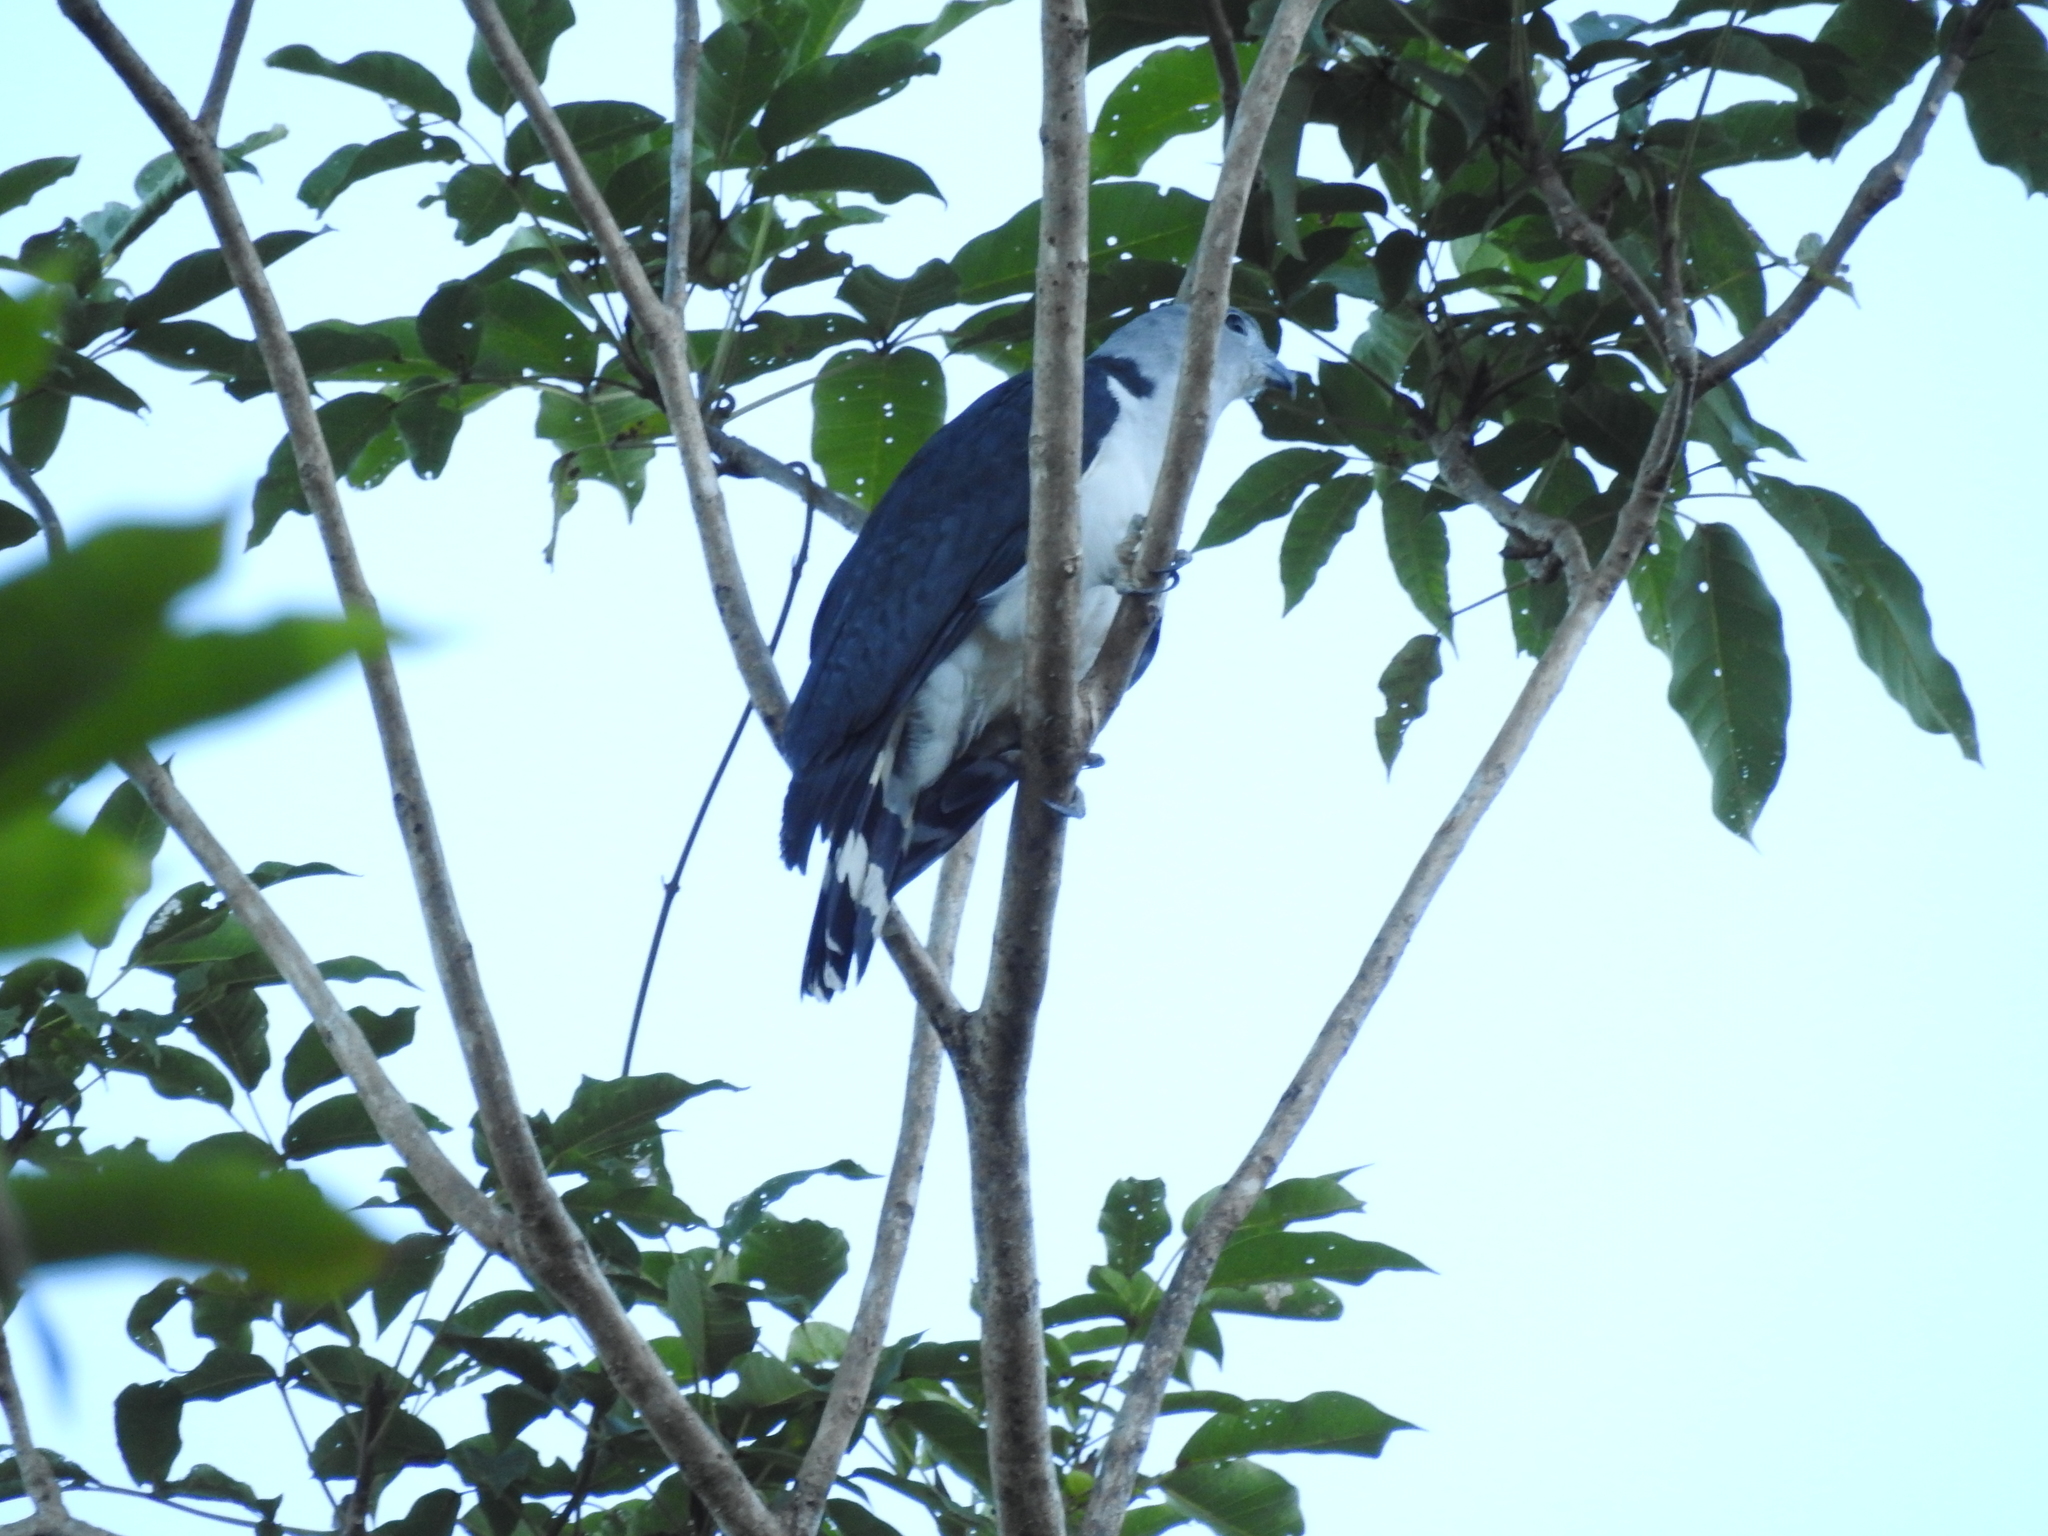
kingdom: Animalia
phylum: Chordata
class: Aves
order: Accipitriformes
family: Accipitridae
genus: Leptodon
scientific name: Leptodon cayanensis
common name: Gray-headed kite
